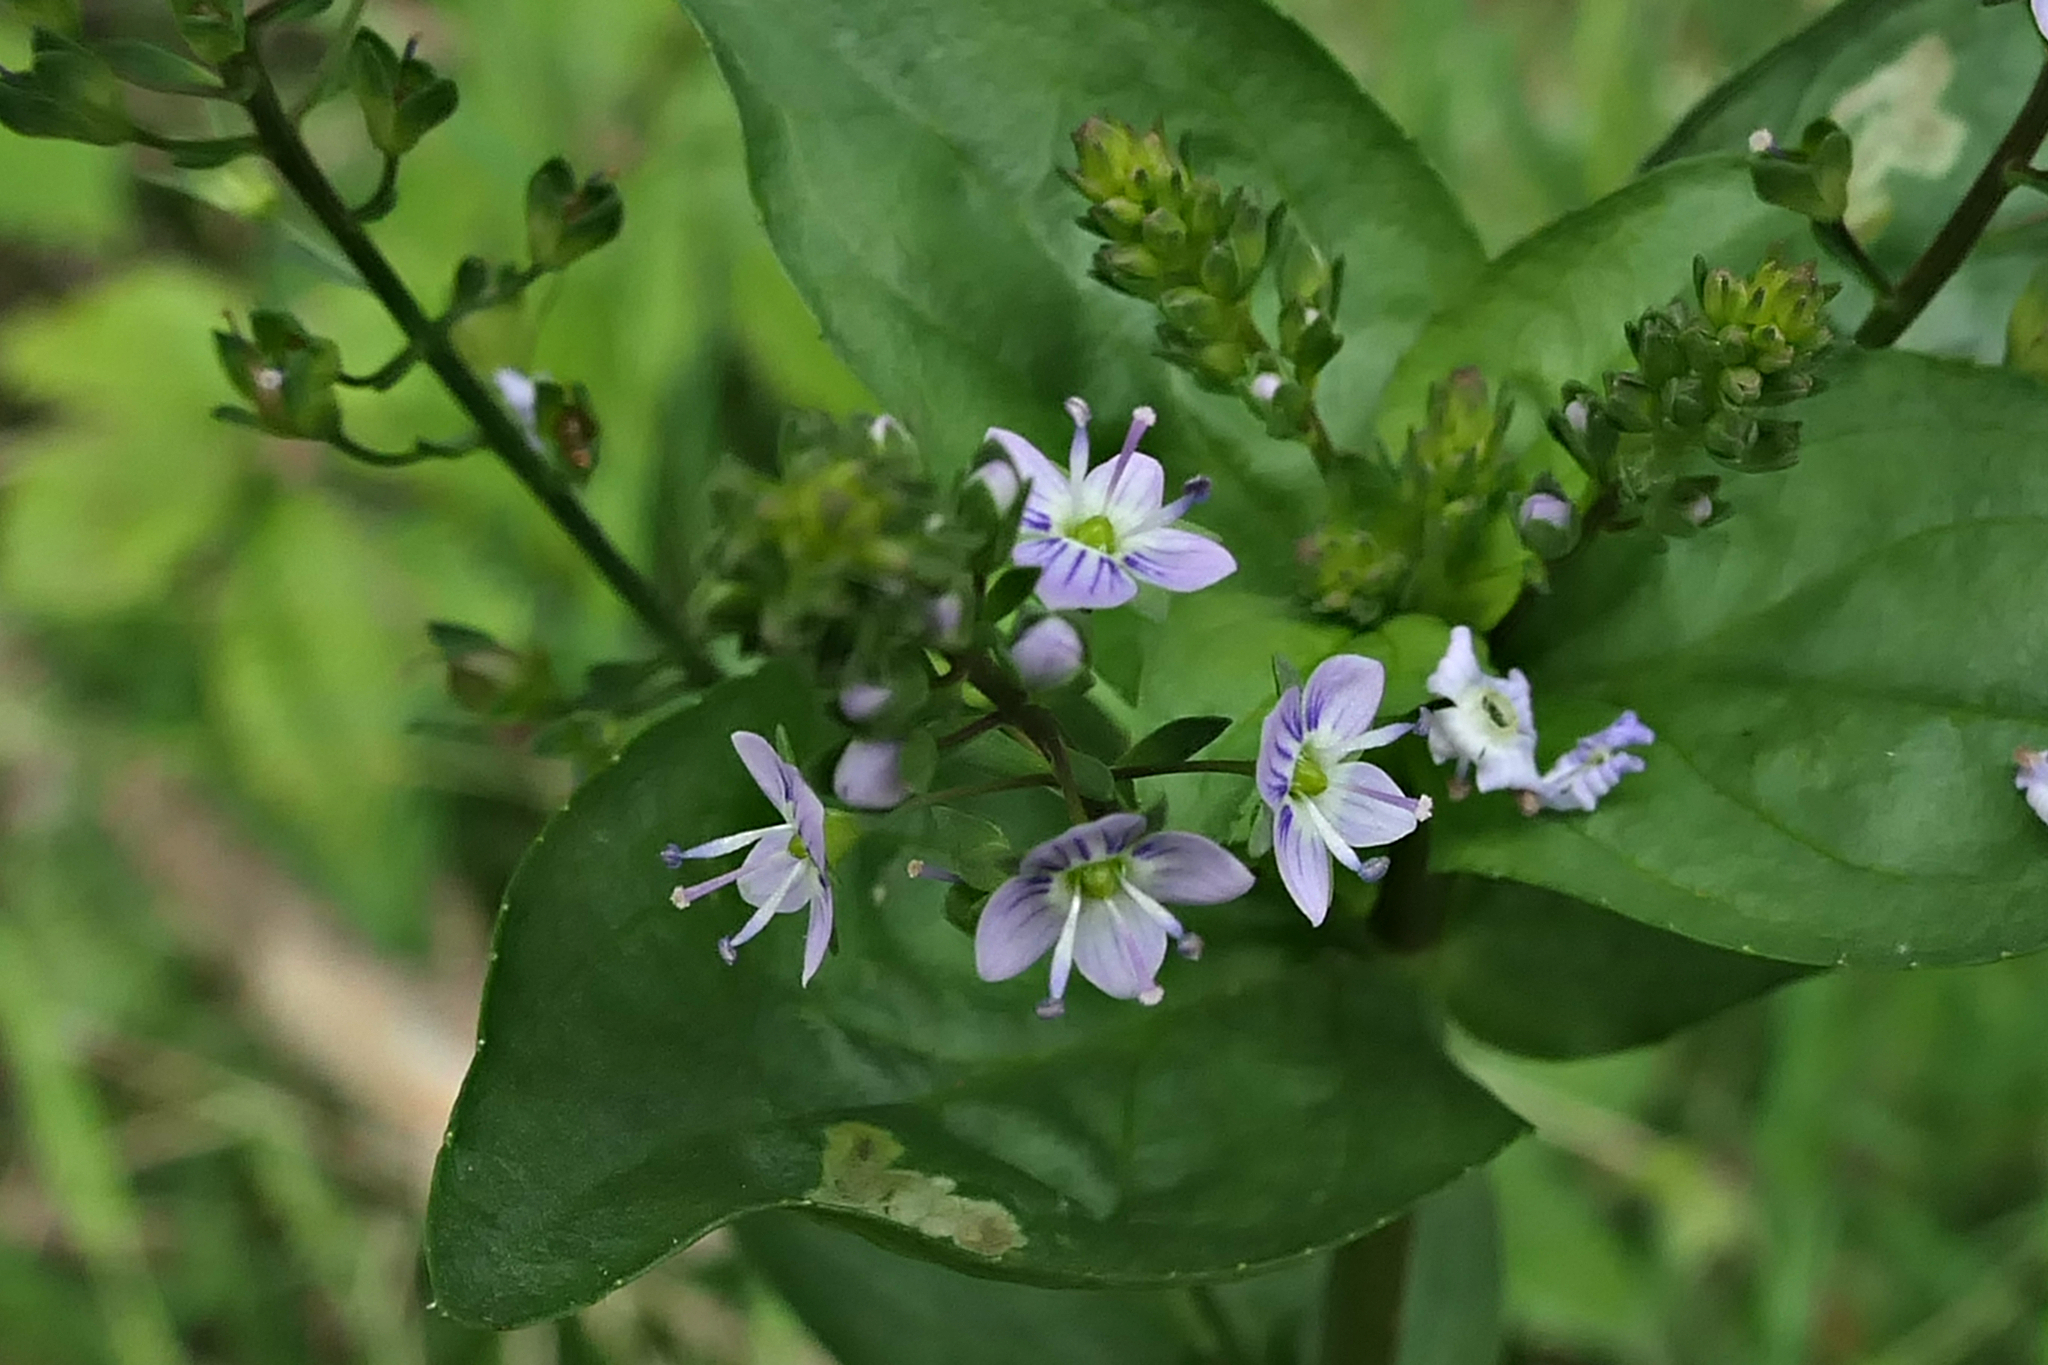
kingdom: Plantae
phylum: Tracheophyta
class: Magnoliopsida
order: Lamiales
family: Plantaginaceae
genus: Veronica
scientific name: Veronica anagallis-aquatica
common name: Water speedwell
